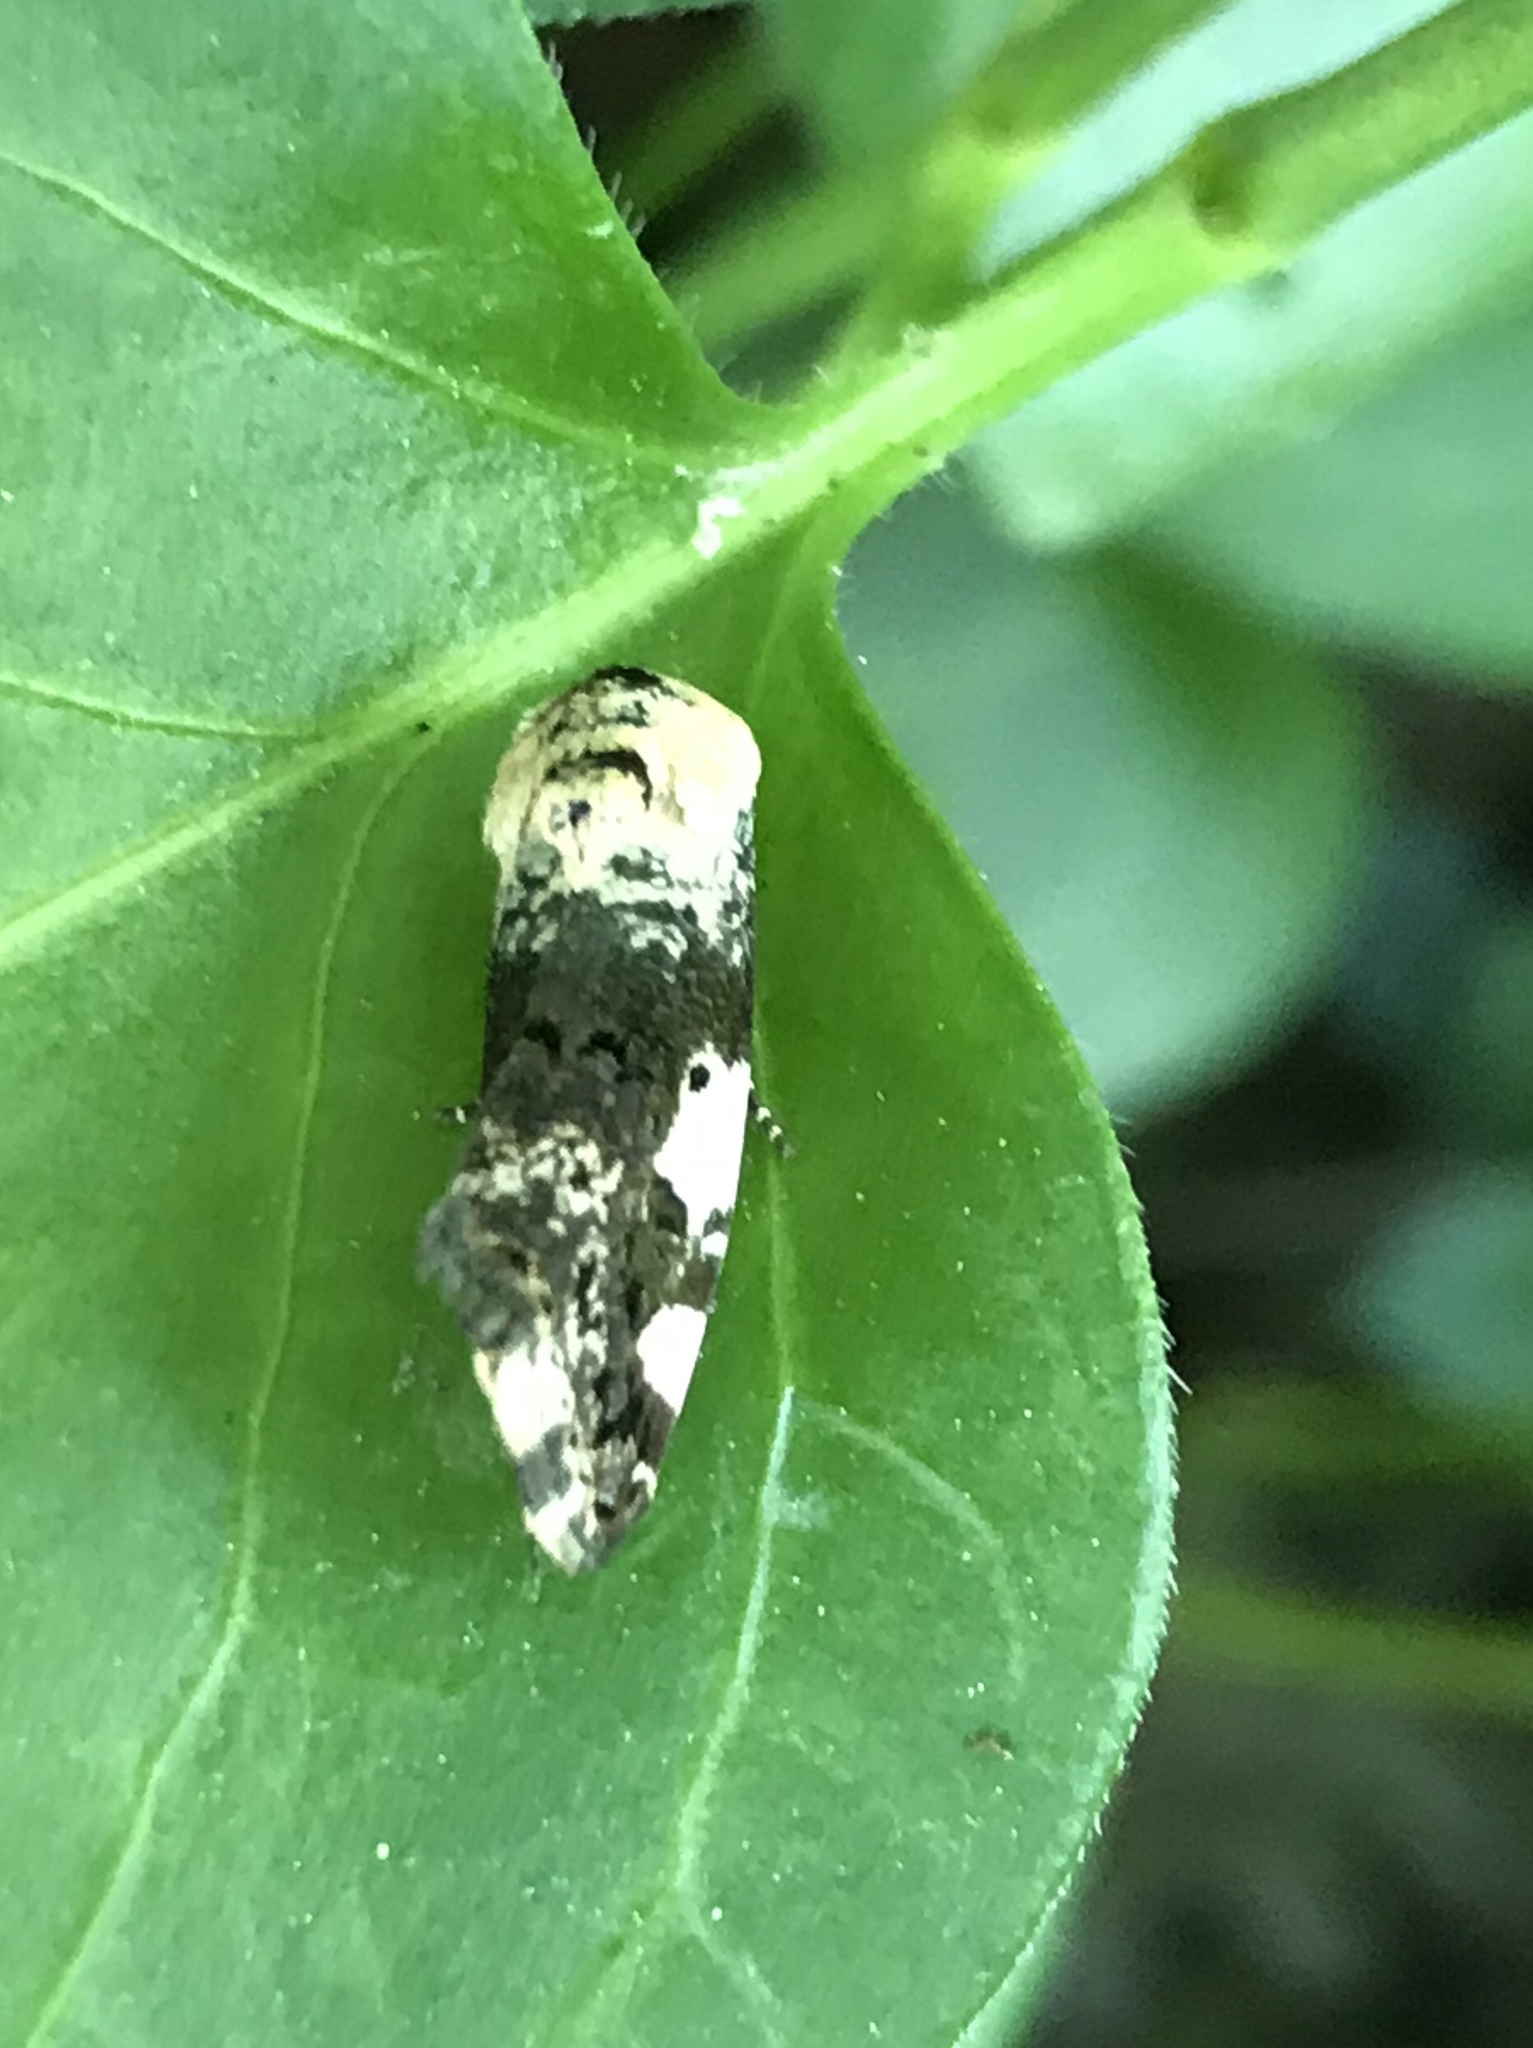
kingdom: Animalia
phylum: Arthropoda
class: Insecta
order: Lepidoptera
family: Noctuidae
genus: Acontia
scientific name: Acontia aprica
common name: Nun
